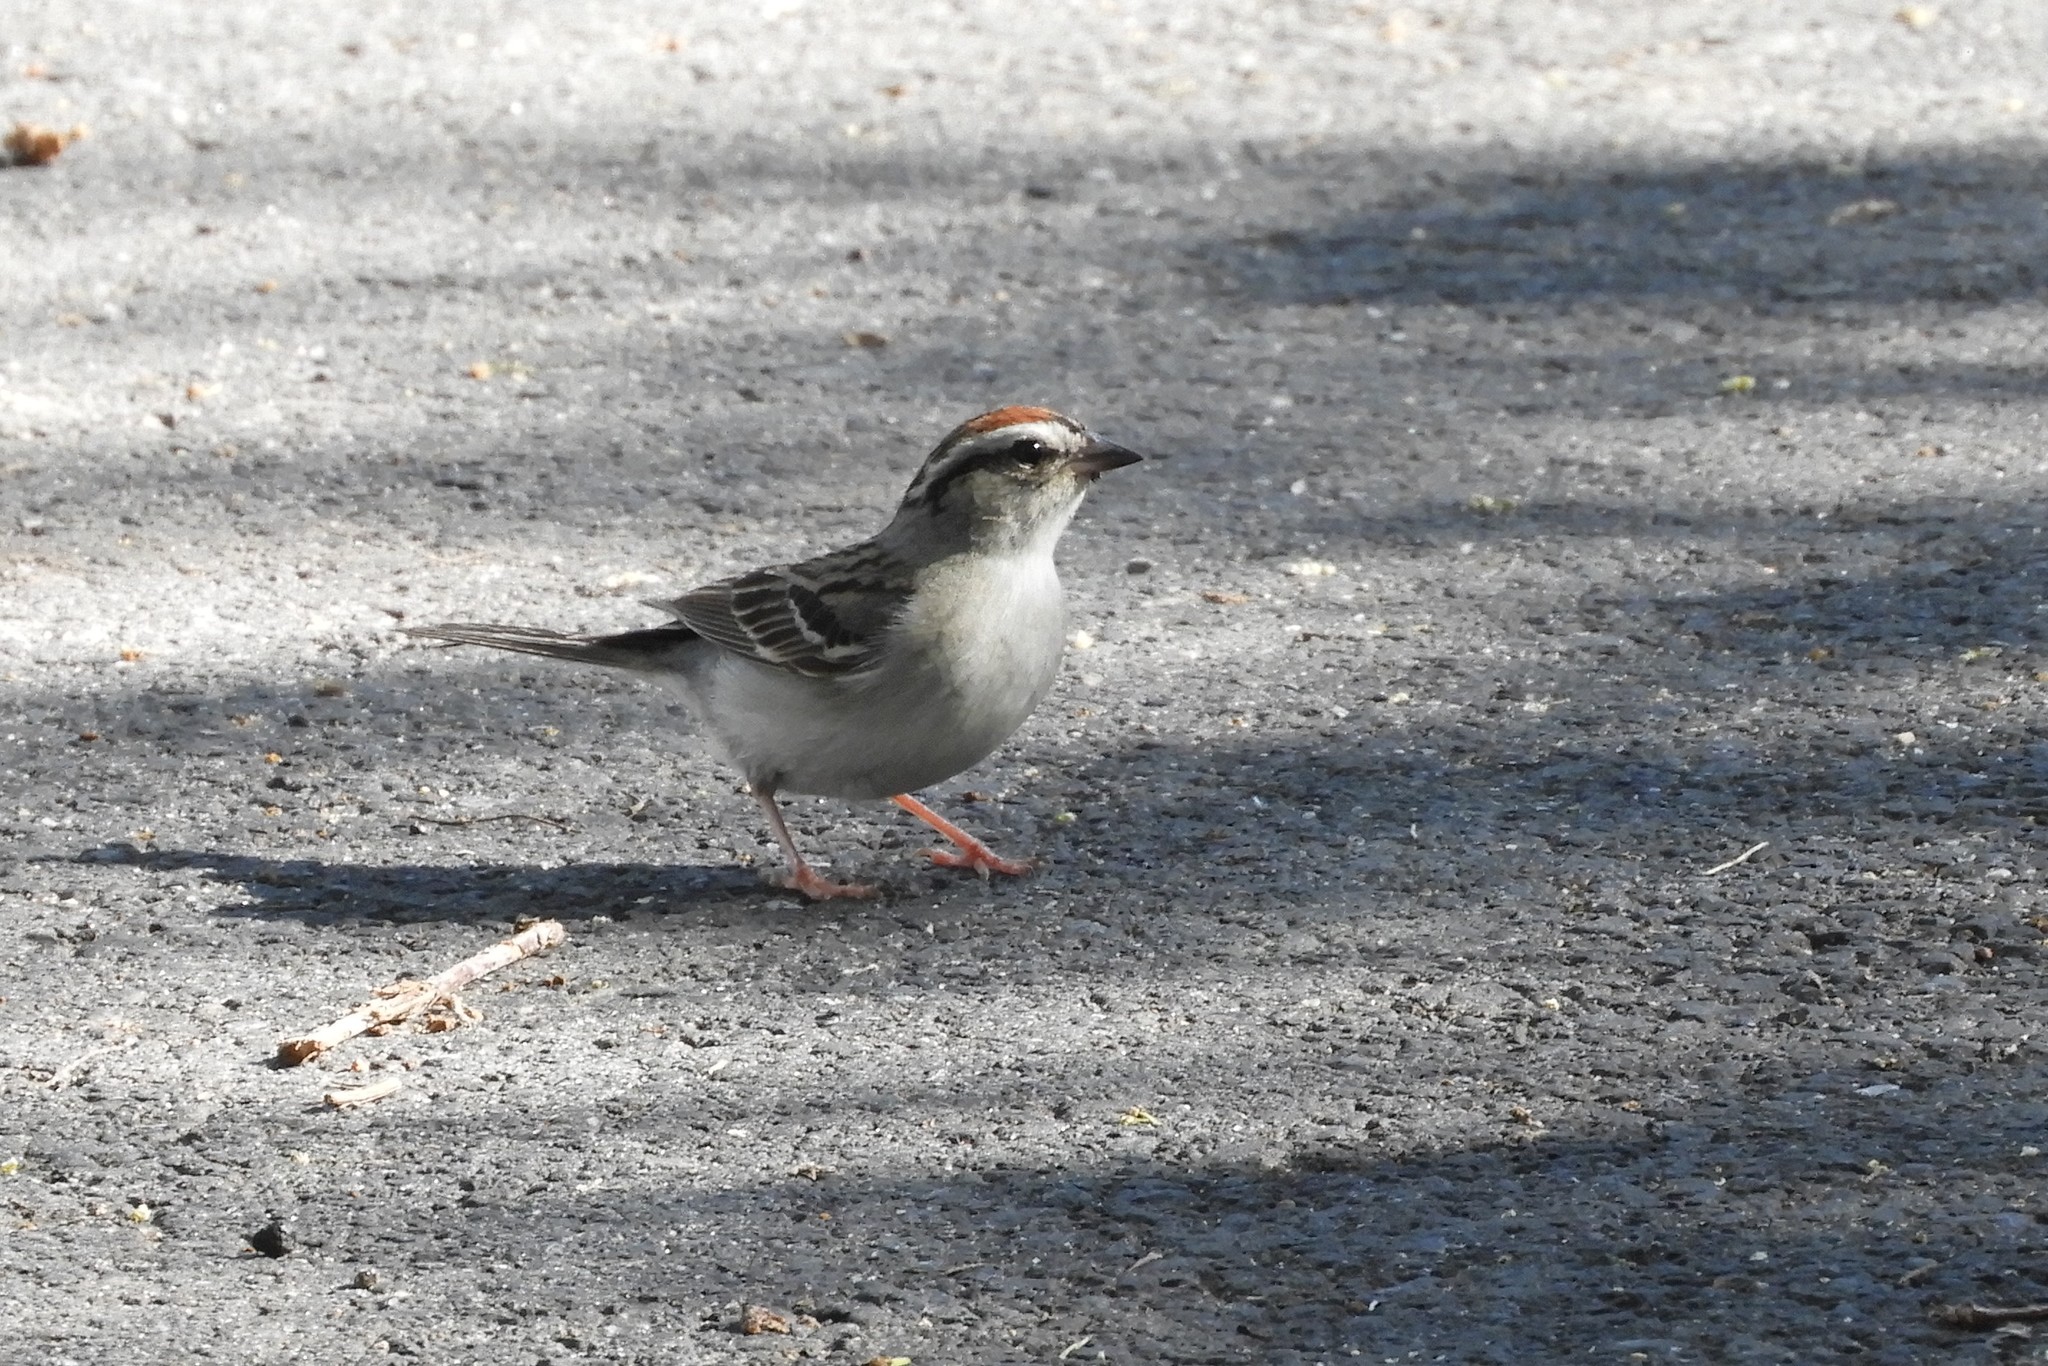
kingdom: Animalia
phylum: Chordata
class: Aves
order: Passeriformes
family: Passerellidae
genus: Spizella
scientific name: Spizella passerina
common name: Chipping sparrow
